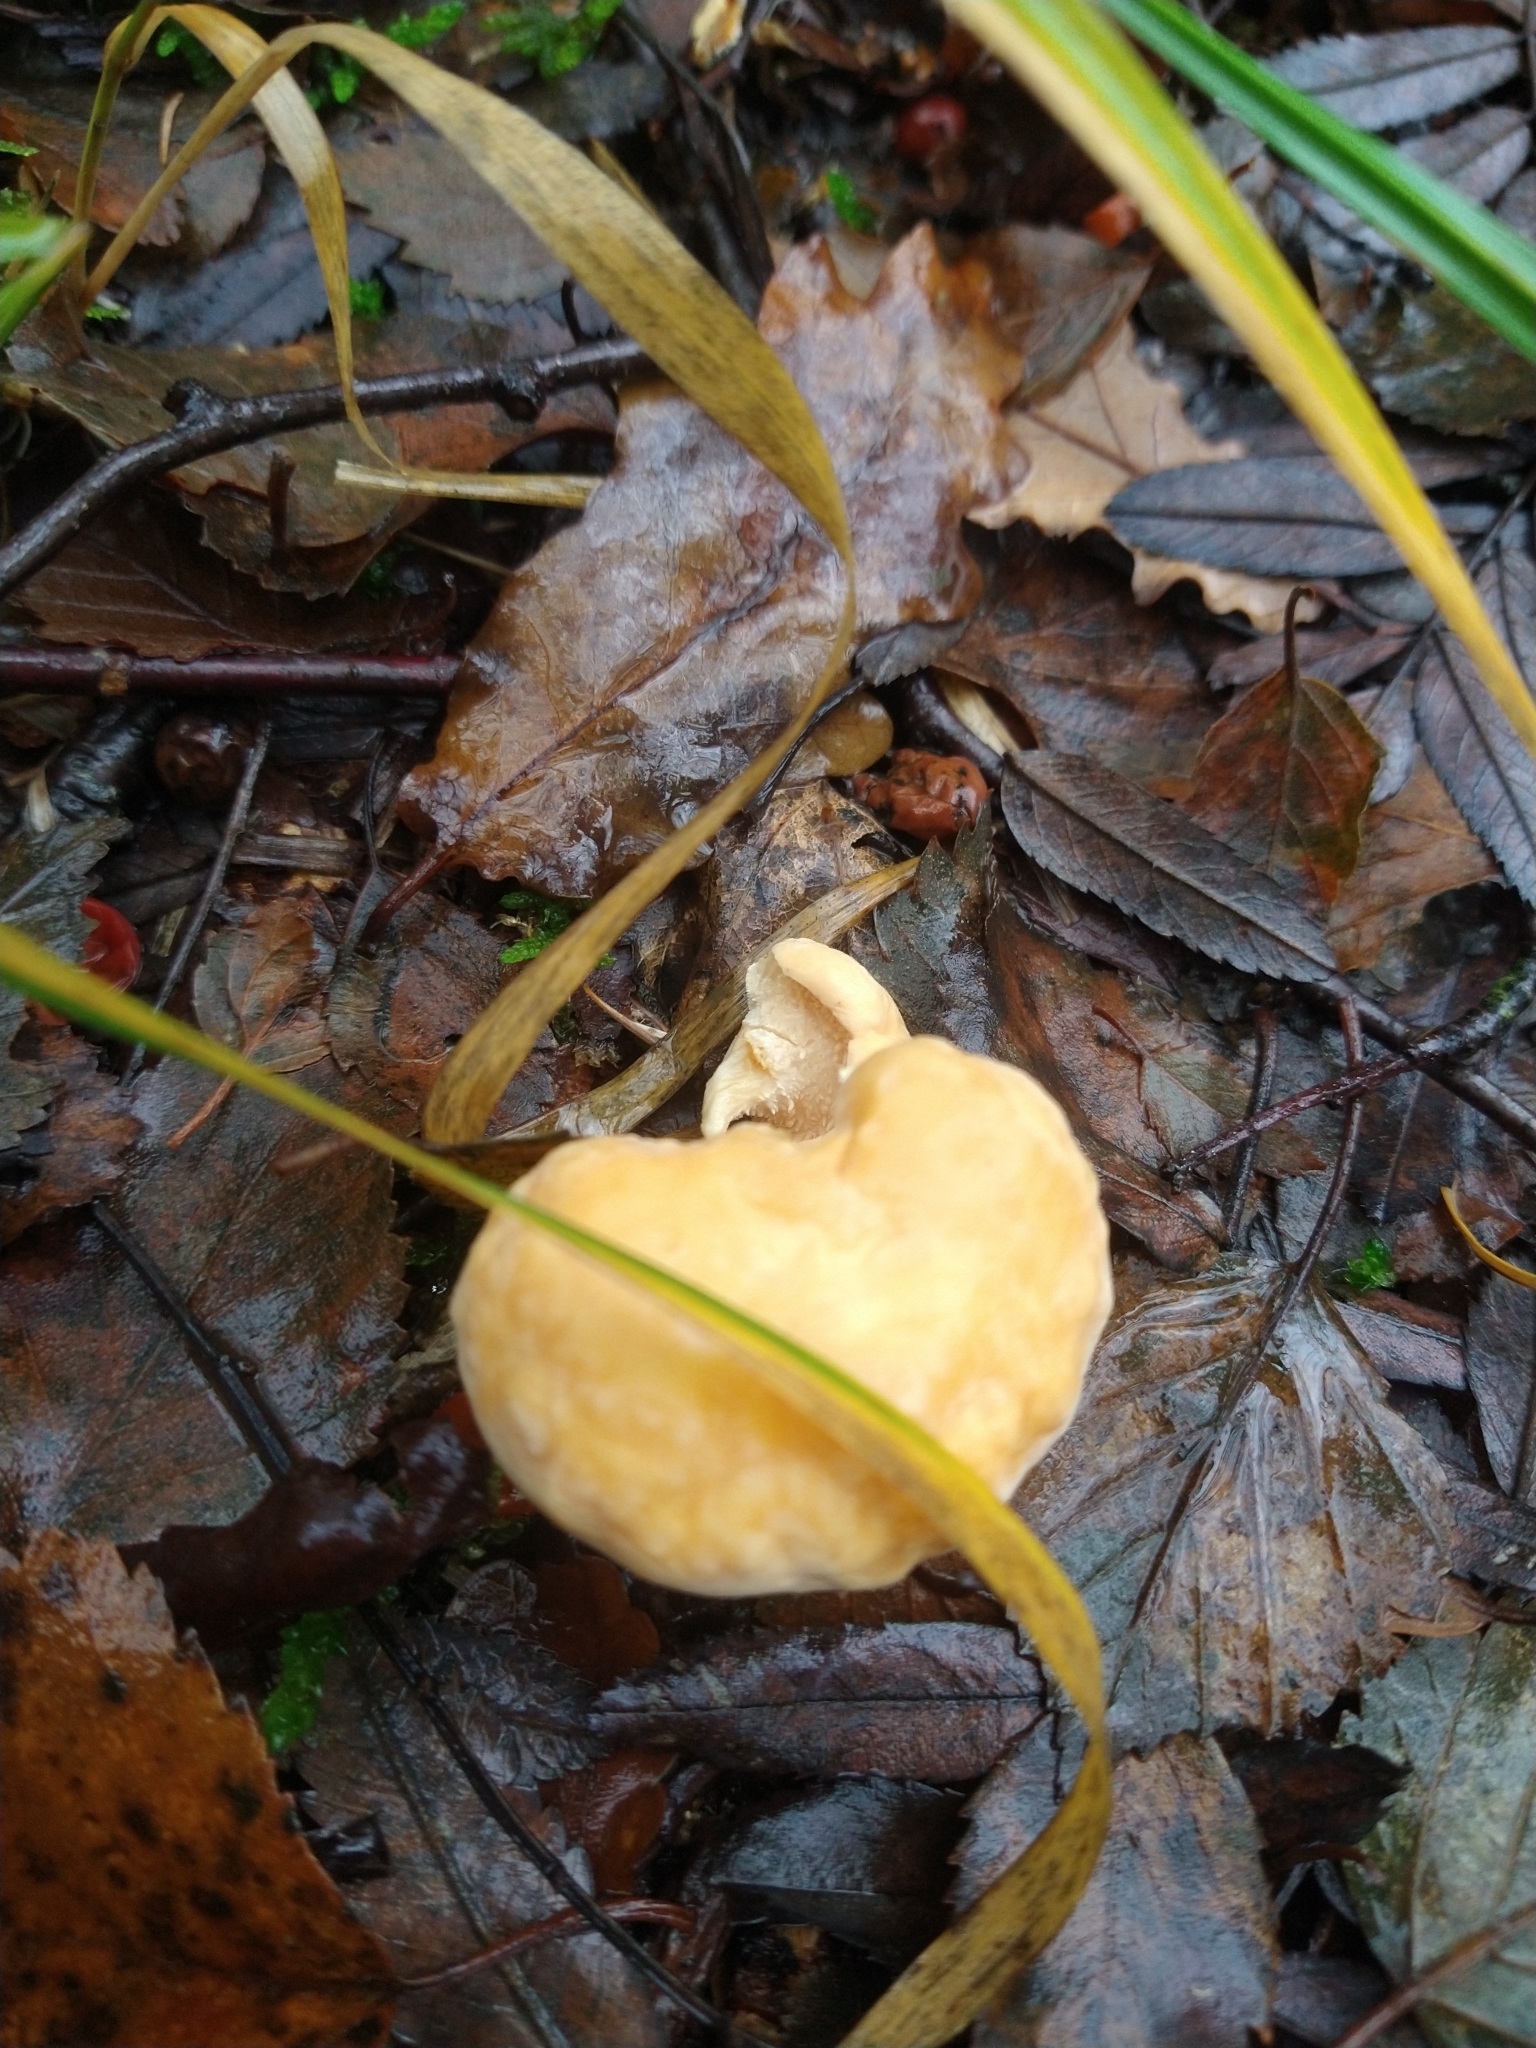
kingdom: Fungi
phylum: Basidiomycota
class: Agaricomycetes
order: Cantharellales
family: Hydnaceae
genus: Hydnum
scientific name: Hydnum repandum
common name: Wood hedgehog
